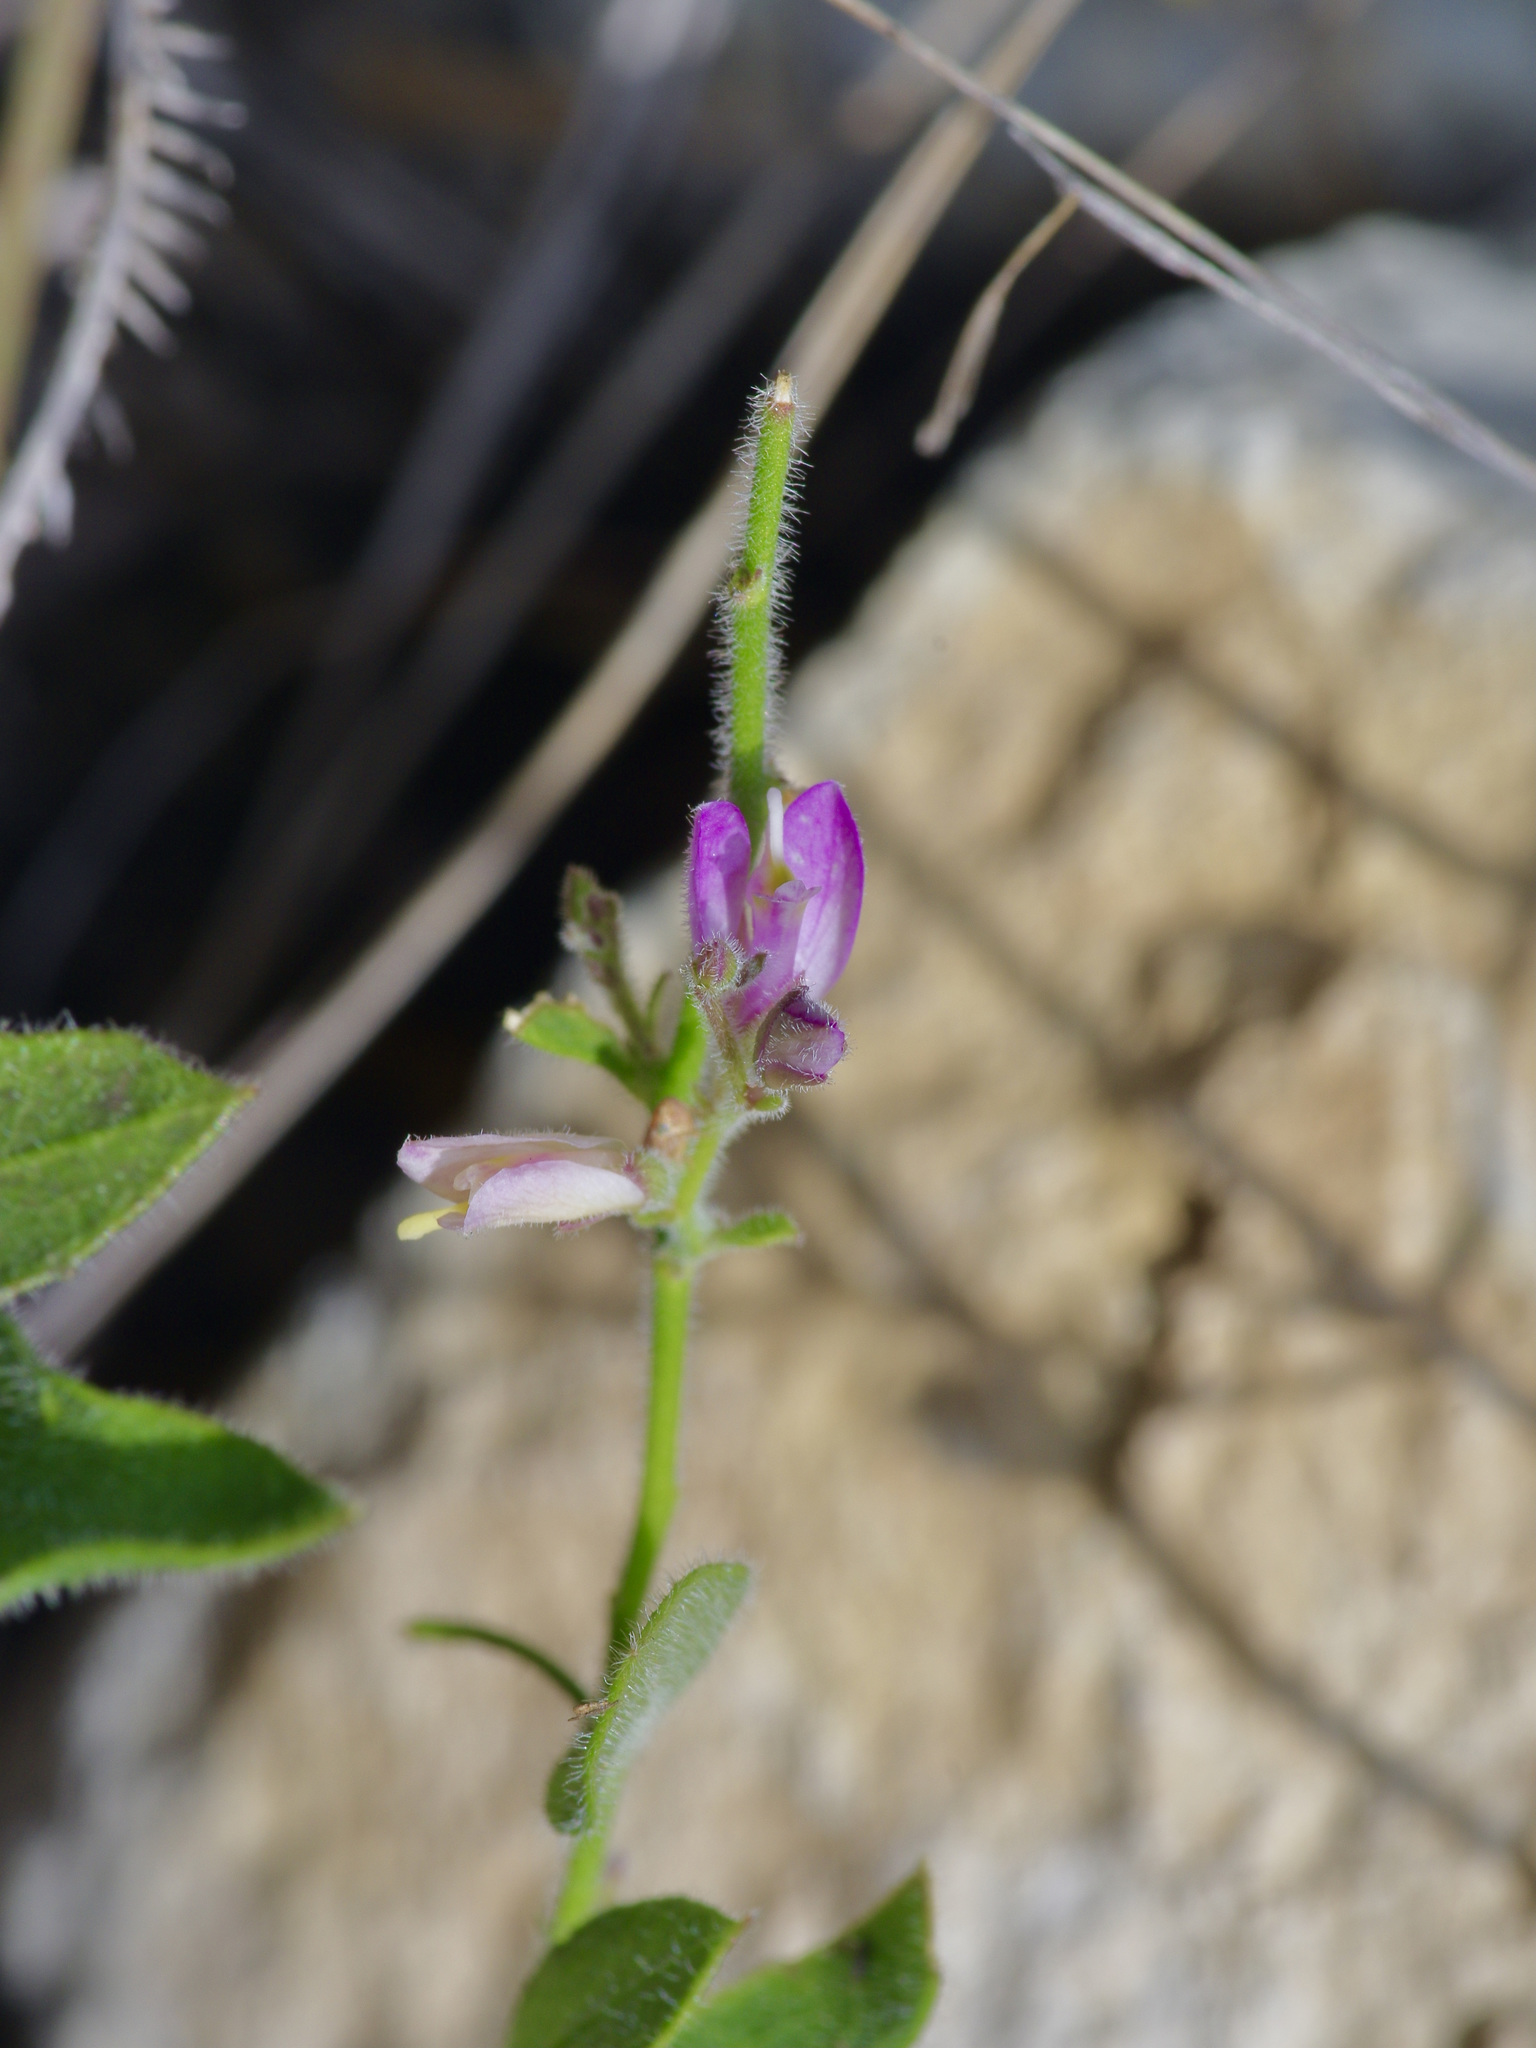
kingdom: Plantae
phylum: Tracheophyta
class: Magnoliopsida
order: Fabales
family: Polygalaceae
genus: Rhinotropis
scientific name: Rhinotropis lindheimeri
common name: Shrubby milkwort
